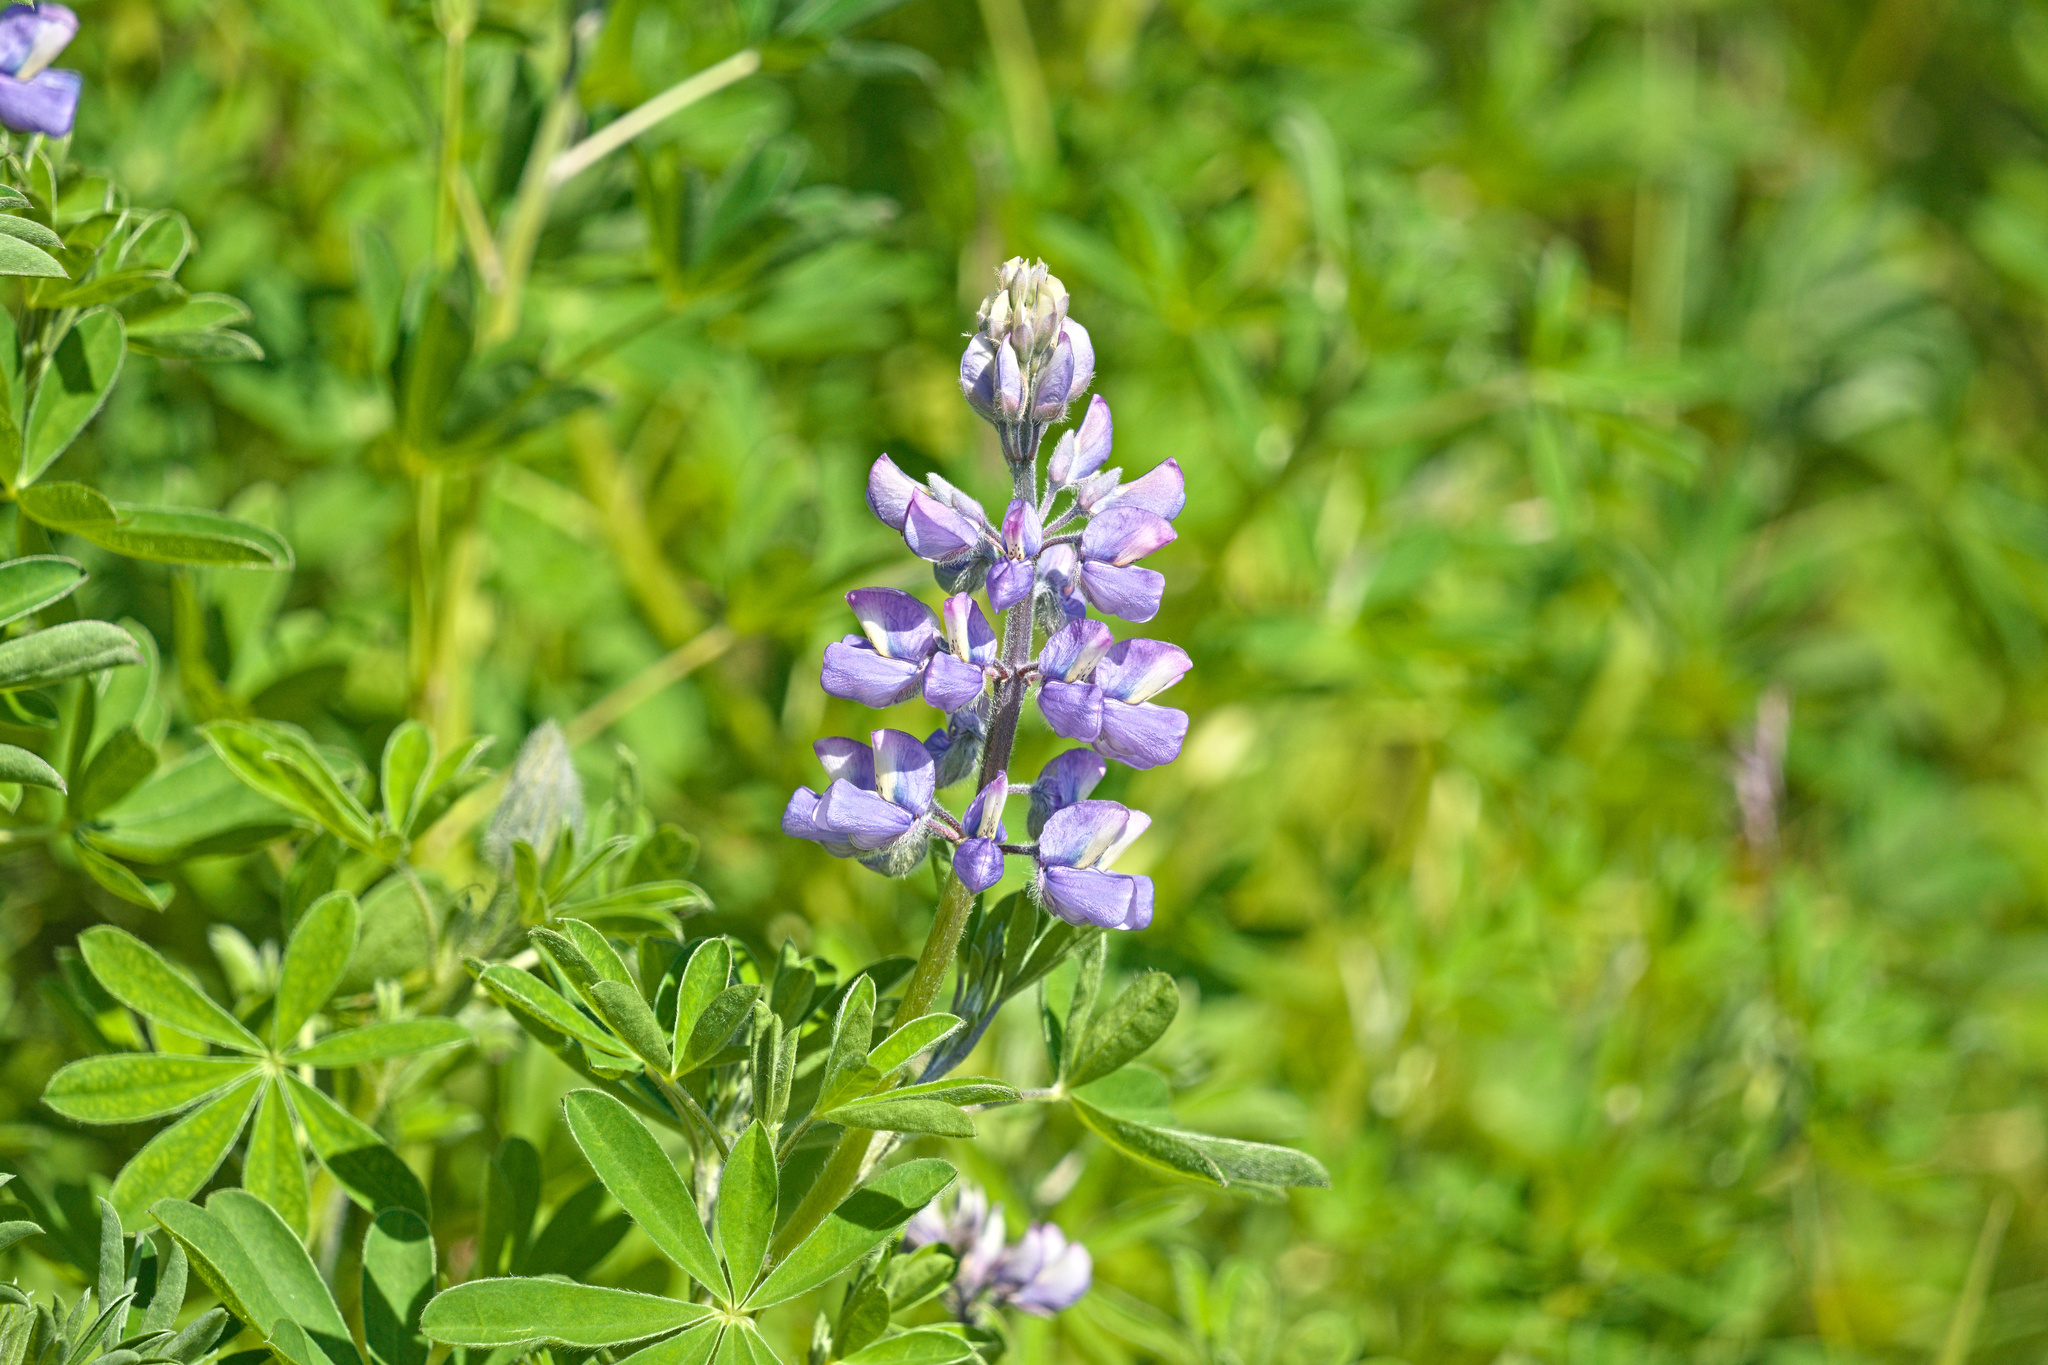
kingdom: Plantae
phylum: Tracheophyta
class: Magnoliopsida
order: Fabales
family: Fabaceae
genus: Lupinus
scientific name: Lupinus nootkatensis
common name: Nootka lupine
